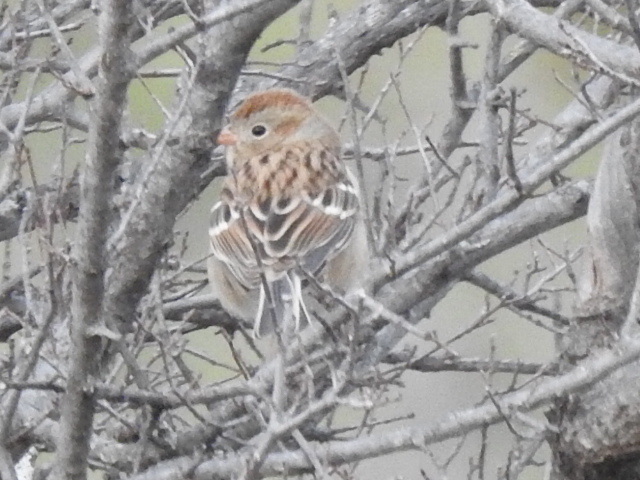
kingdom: Animalia
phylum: Chordata
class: Aves
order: Passeriformes
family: Passerellidae
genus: Spizella
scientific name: Spizella pusilla
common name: Field sparrow
